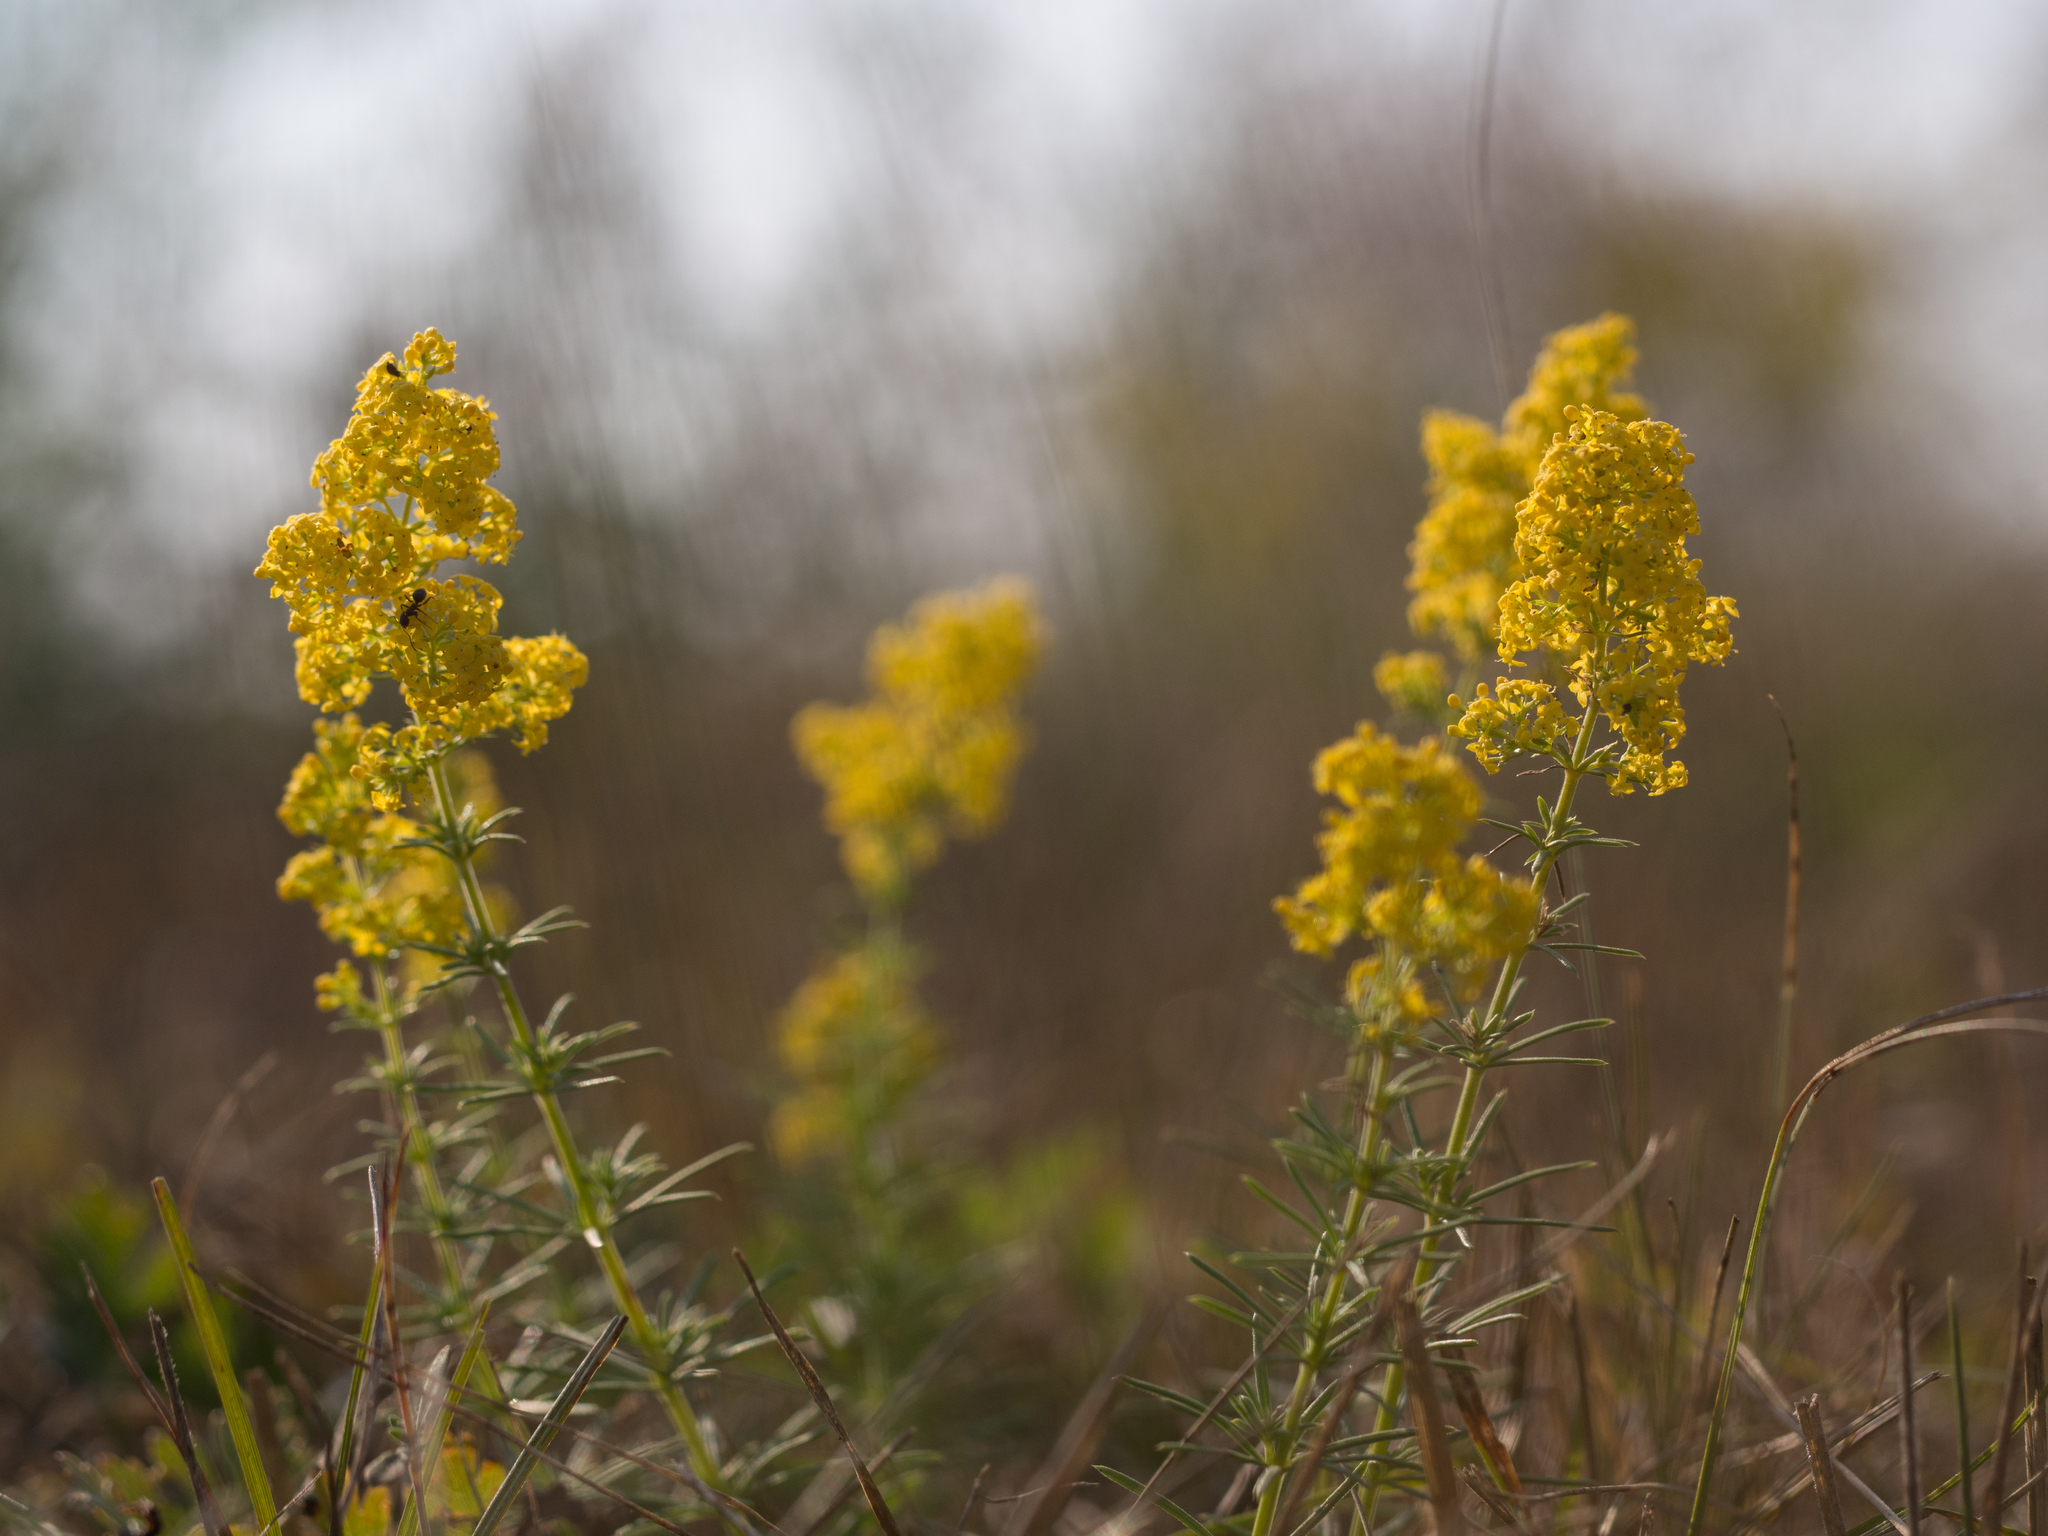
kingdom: Plantae
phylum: Tracheophyta
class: Magnoliopsida
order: Gentianales
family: Rubiaceae
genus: Galium
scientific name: Galium verum
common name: Lady's bedstraw
